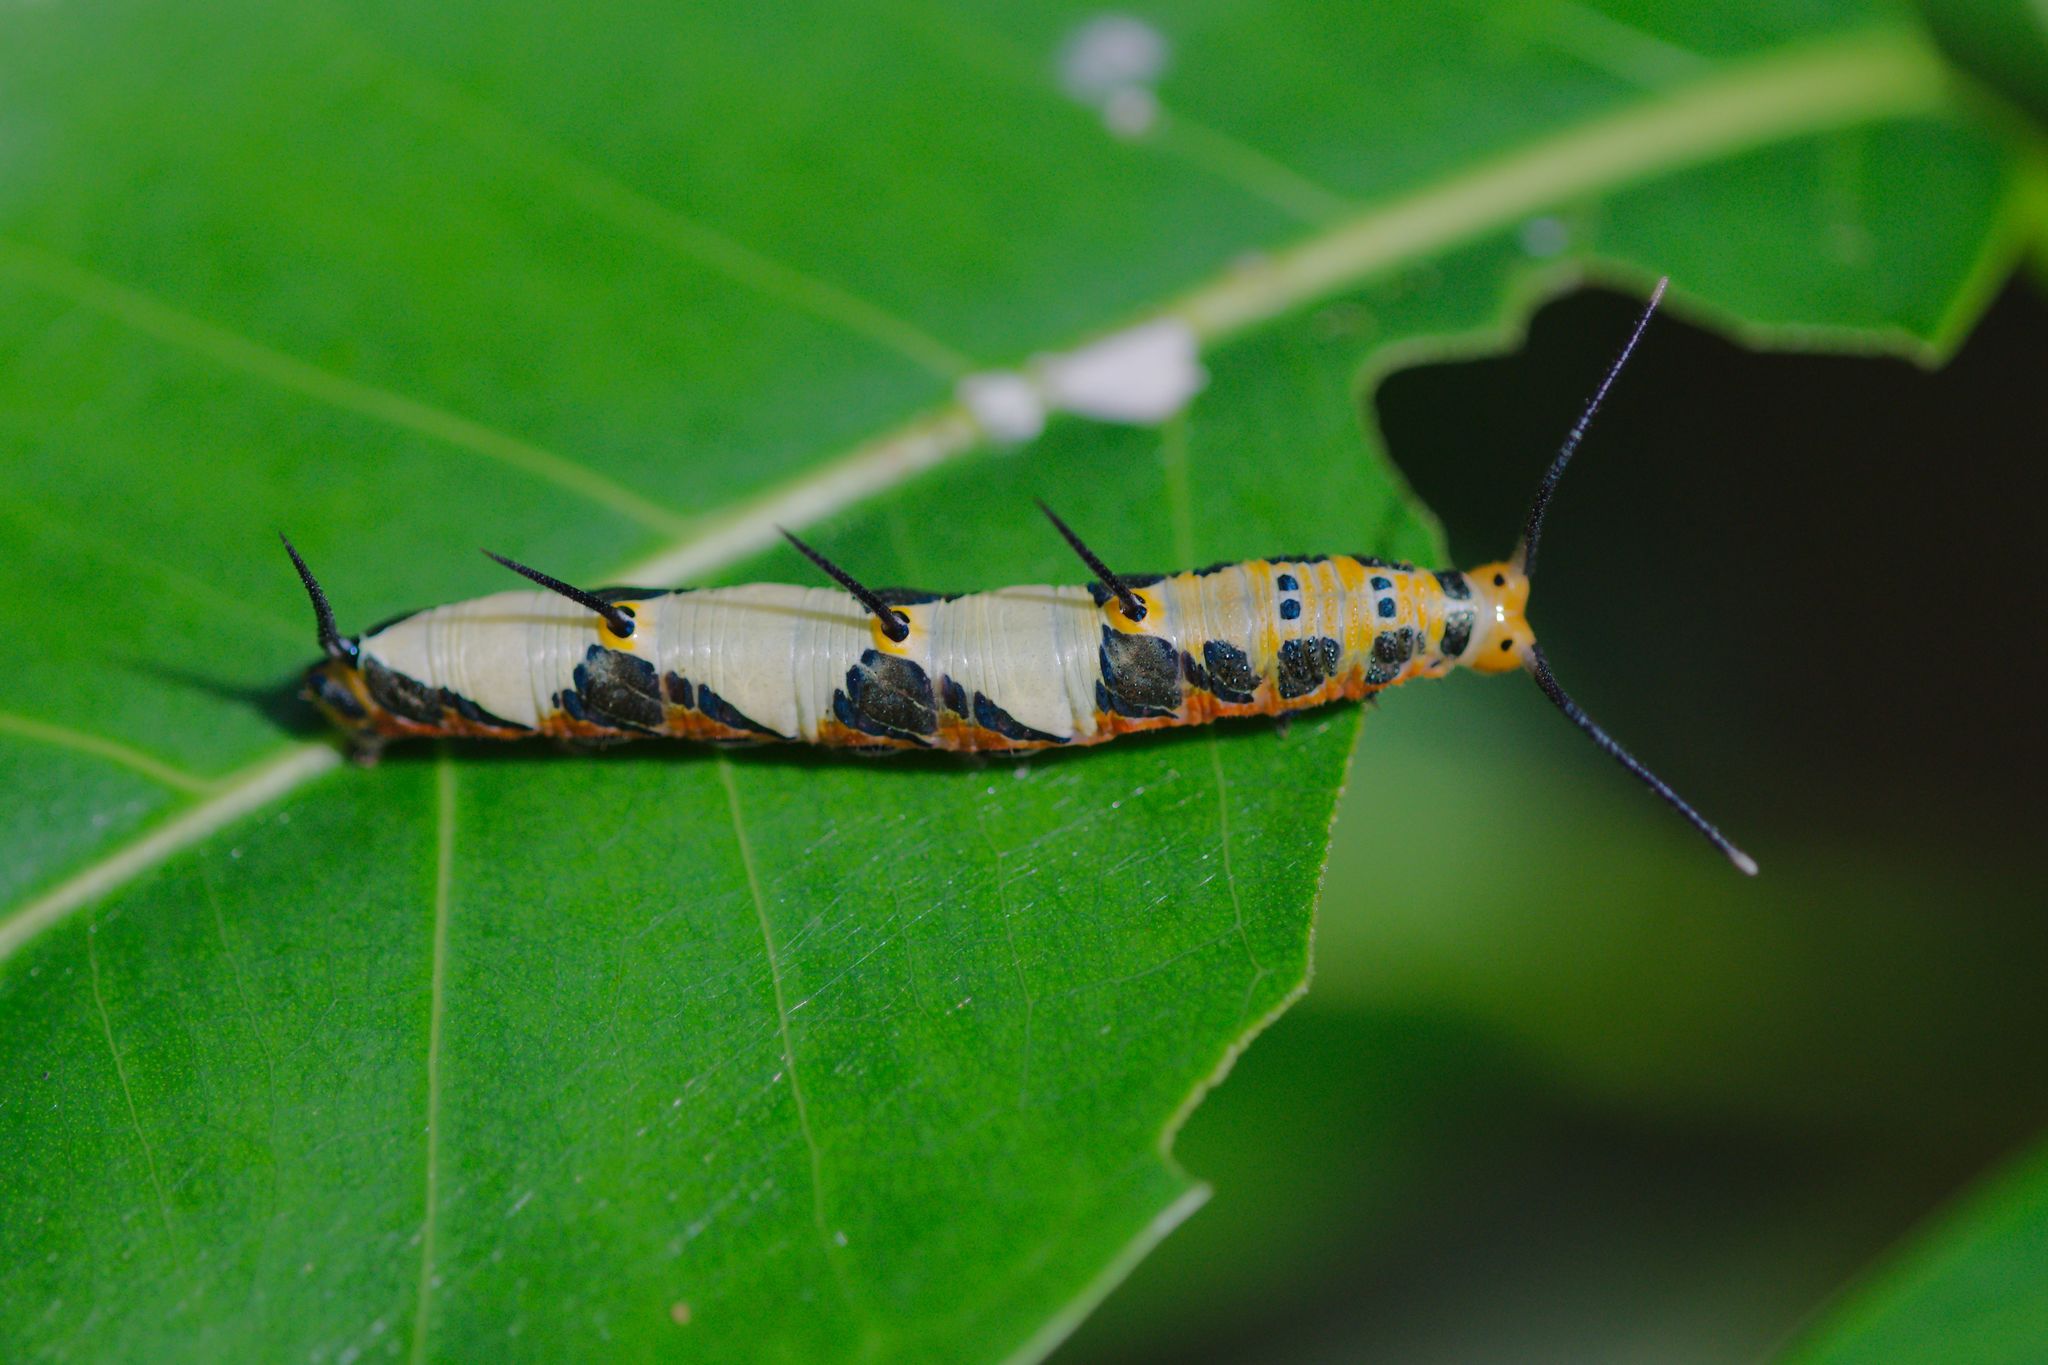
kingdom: Animalia
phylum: Arthropoda
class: Insecta
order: Lepidoptera
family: Nymphalidae
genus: Marpesia
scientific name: Marpesia petreus
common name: Red dagger wing
